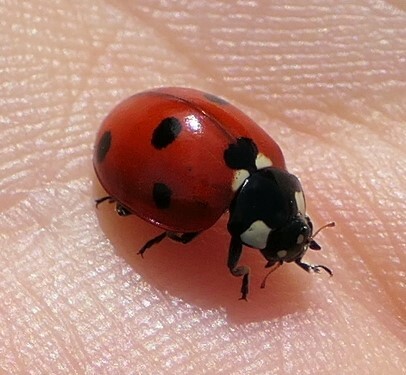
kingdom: Animalia
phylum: Arthropoda
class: Insecta
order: Coleoptera
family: Coccinellidae
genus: Coccinella
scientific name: Coccinella septempunctata
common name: Sevenspotted lady beetle
